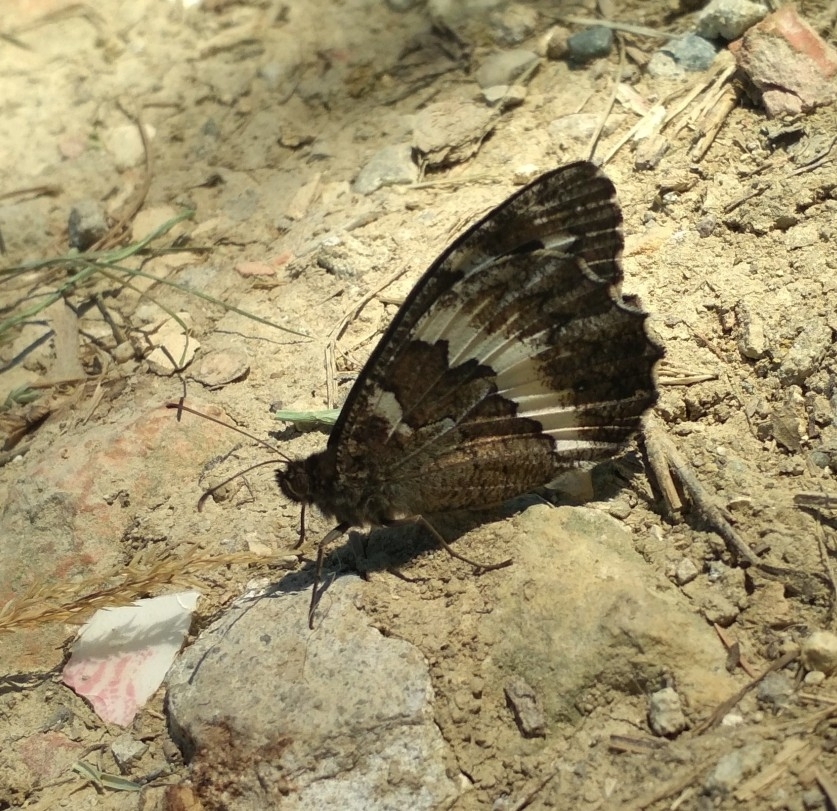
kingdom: Animalia
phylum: Arthropoda
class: Insecta
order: Lepidoptera
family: Lycaenidae
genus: Loweia
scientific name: Loweia tityrus
